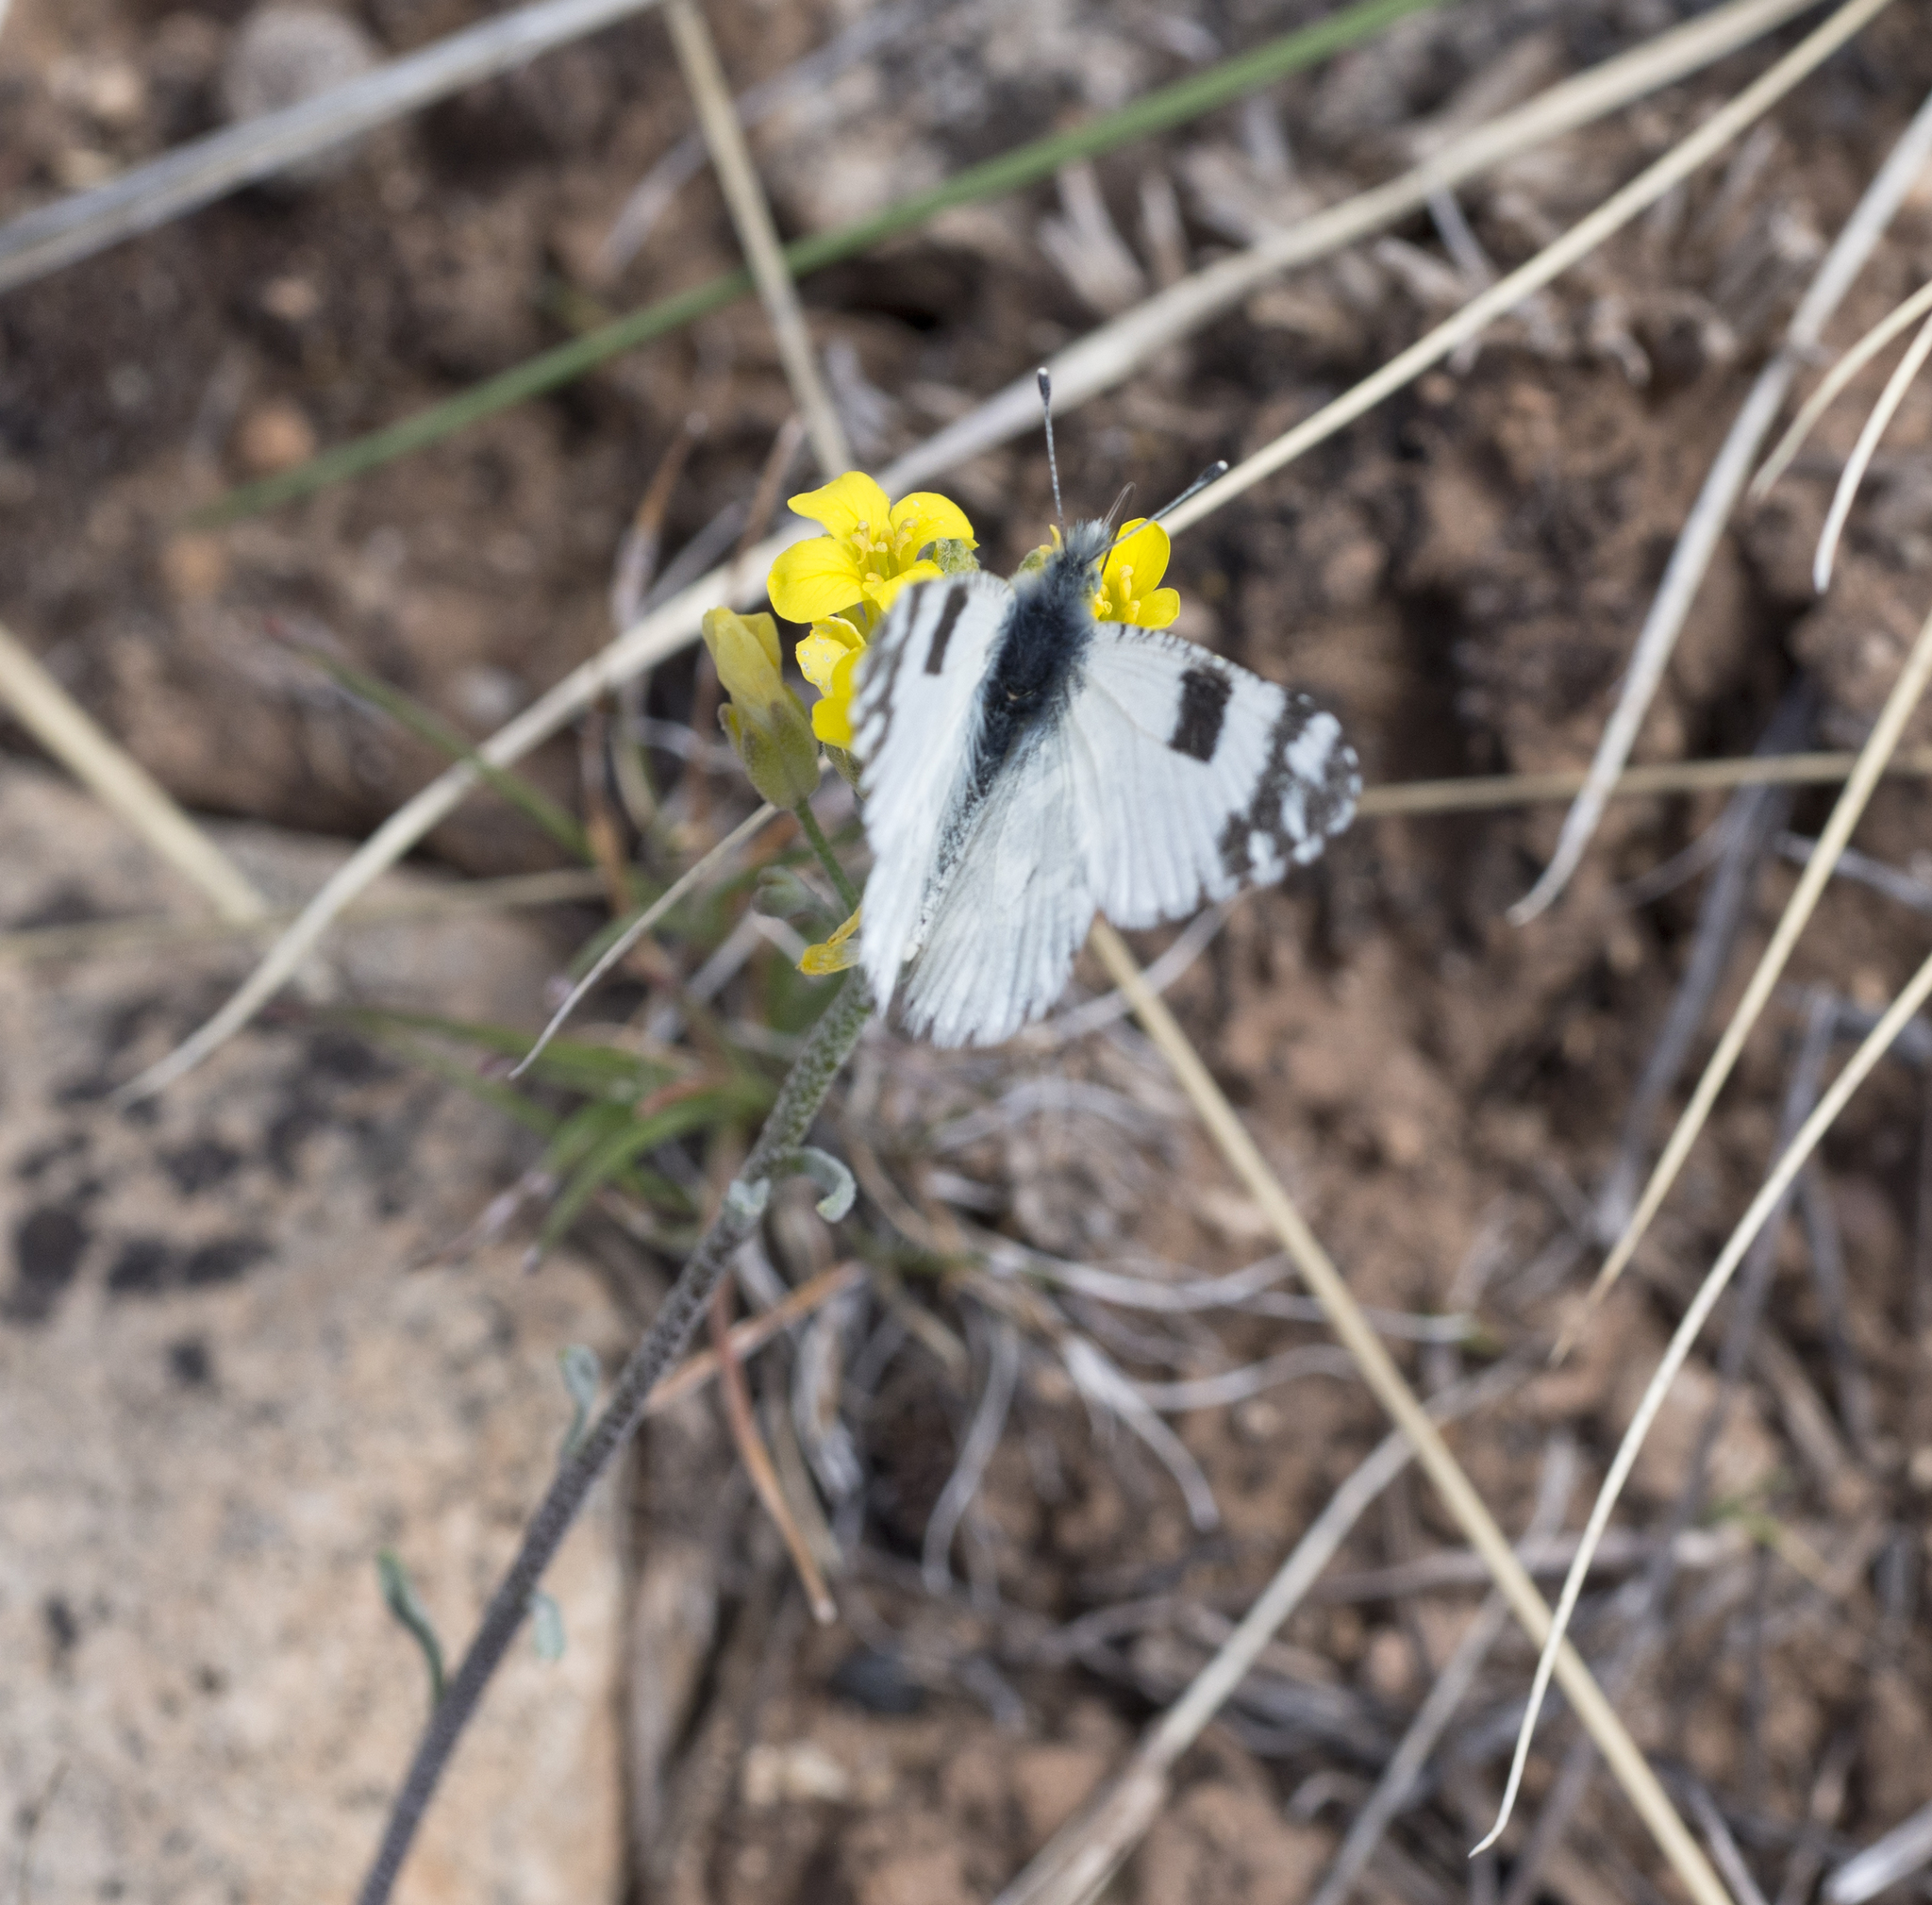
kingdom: Animalia
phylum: Arthropoda
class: Insecta
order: Lepidoptera
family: Pieridae
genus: Euchloe
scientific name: Euchloe lotta
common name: Desert marble
